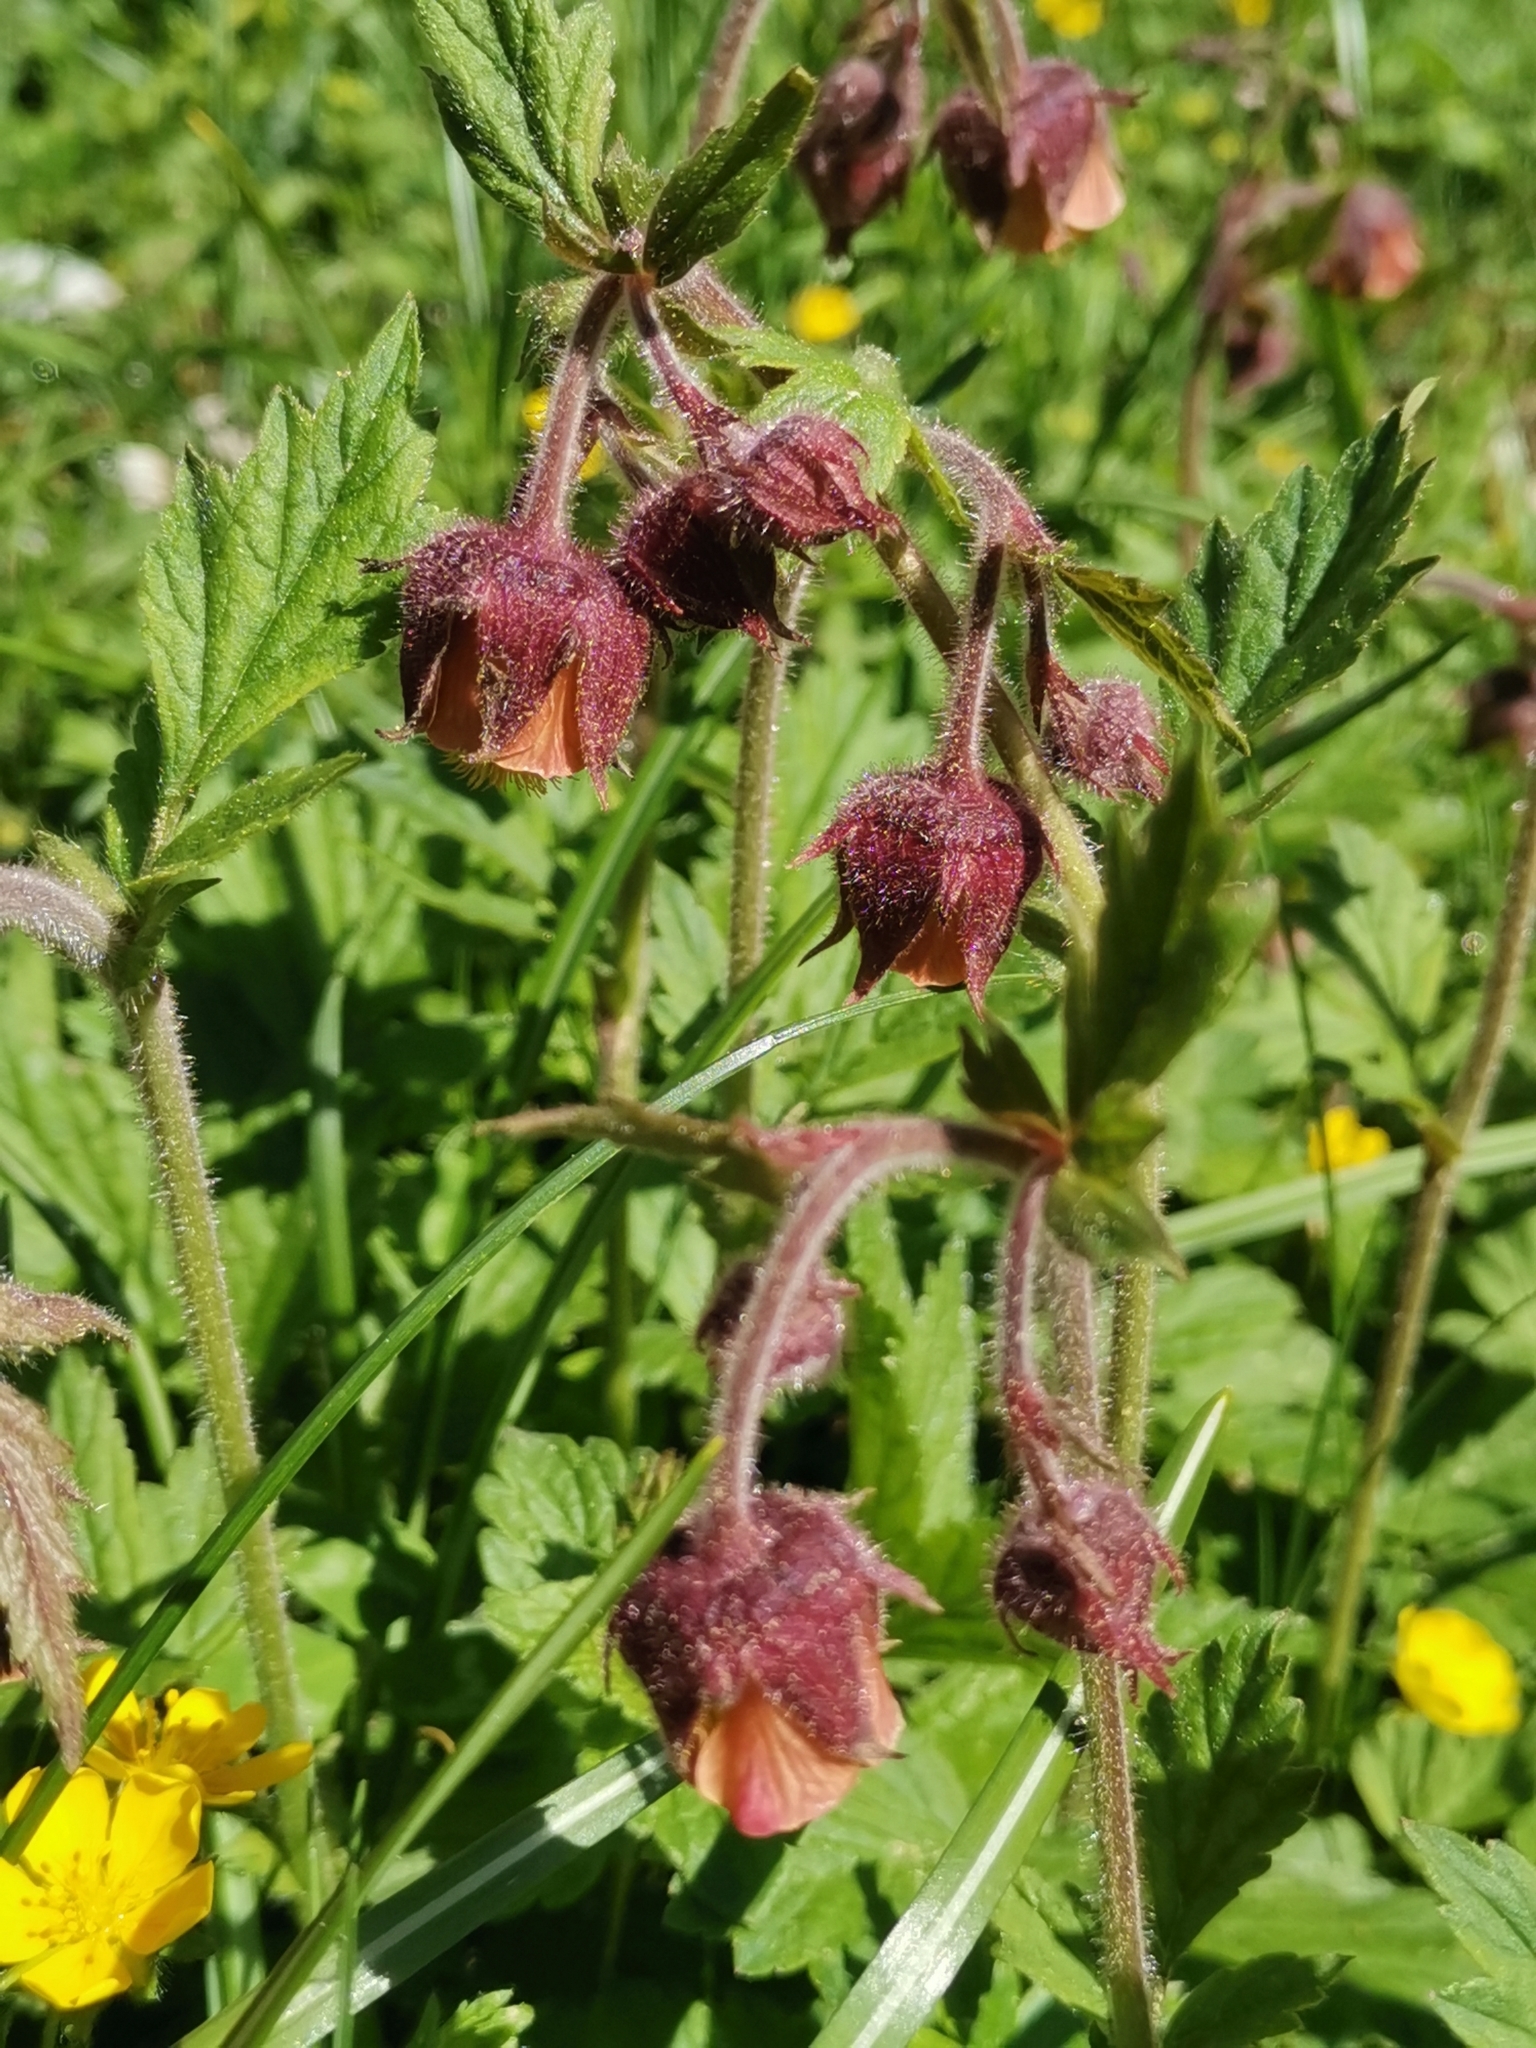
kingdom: Plantae
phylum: Tracheophyta
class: Magnoliopsida
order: Rosales
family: Rosaceae
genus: Geum
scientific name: Geum rivale
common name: Water avens
